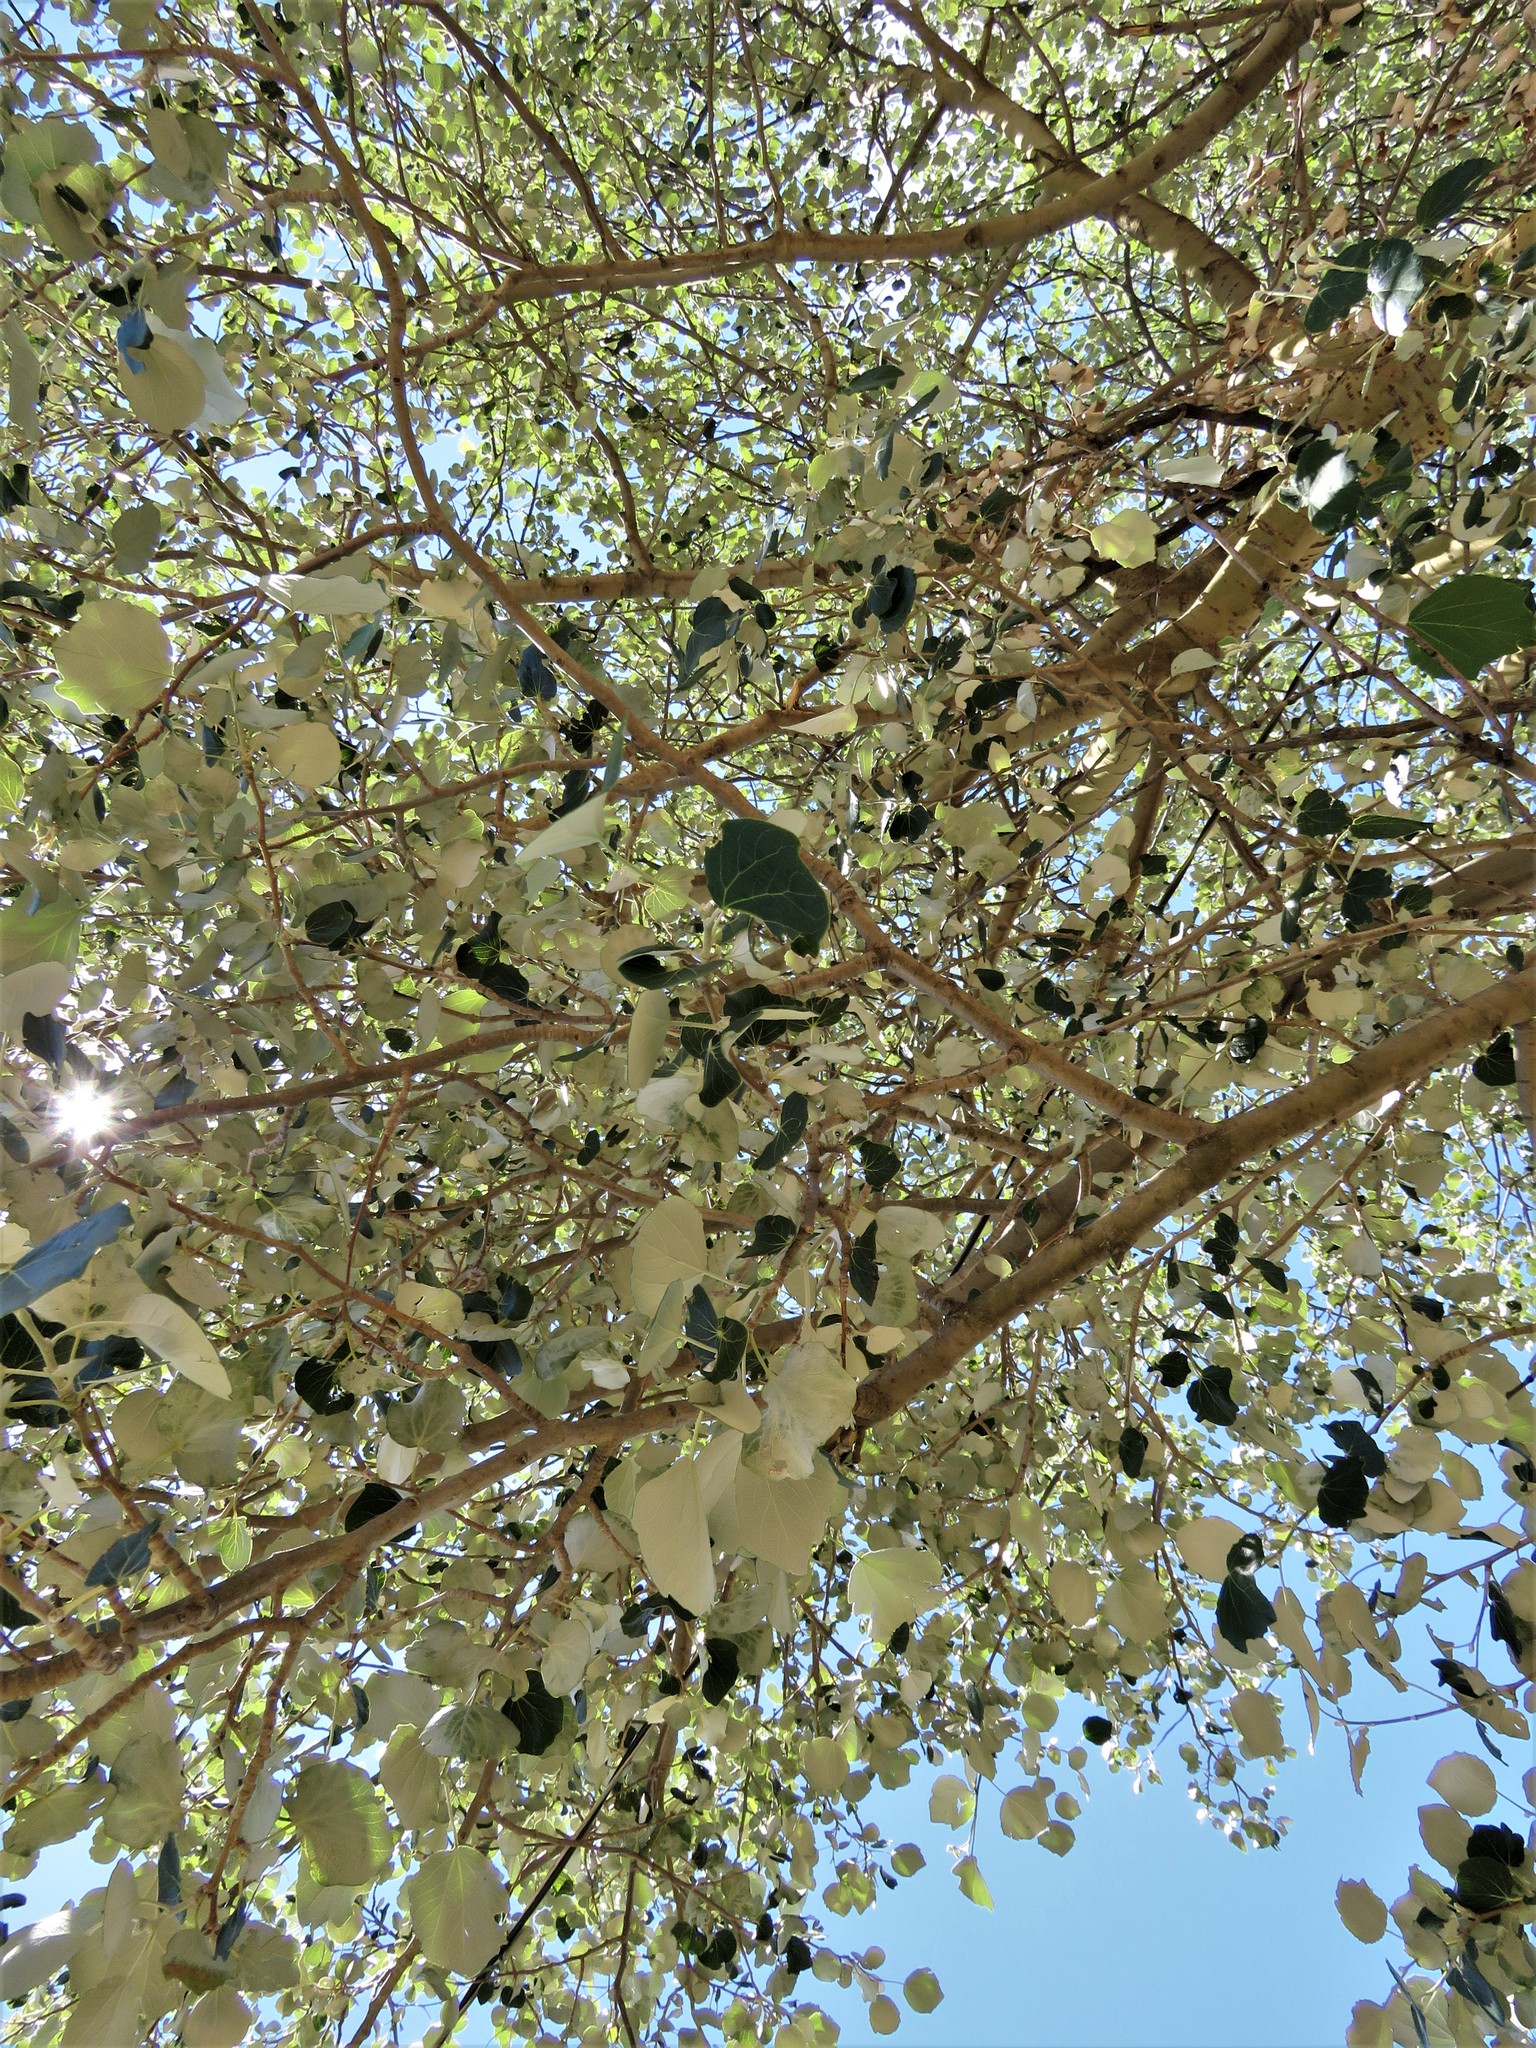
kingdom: Plantae
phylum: Tracheophyta
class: Magnoliopsida
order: Malpighiales
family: Salicaceae
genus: Populus
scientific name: Populus alba
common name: White poplar
